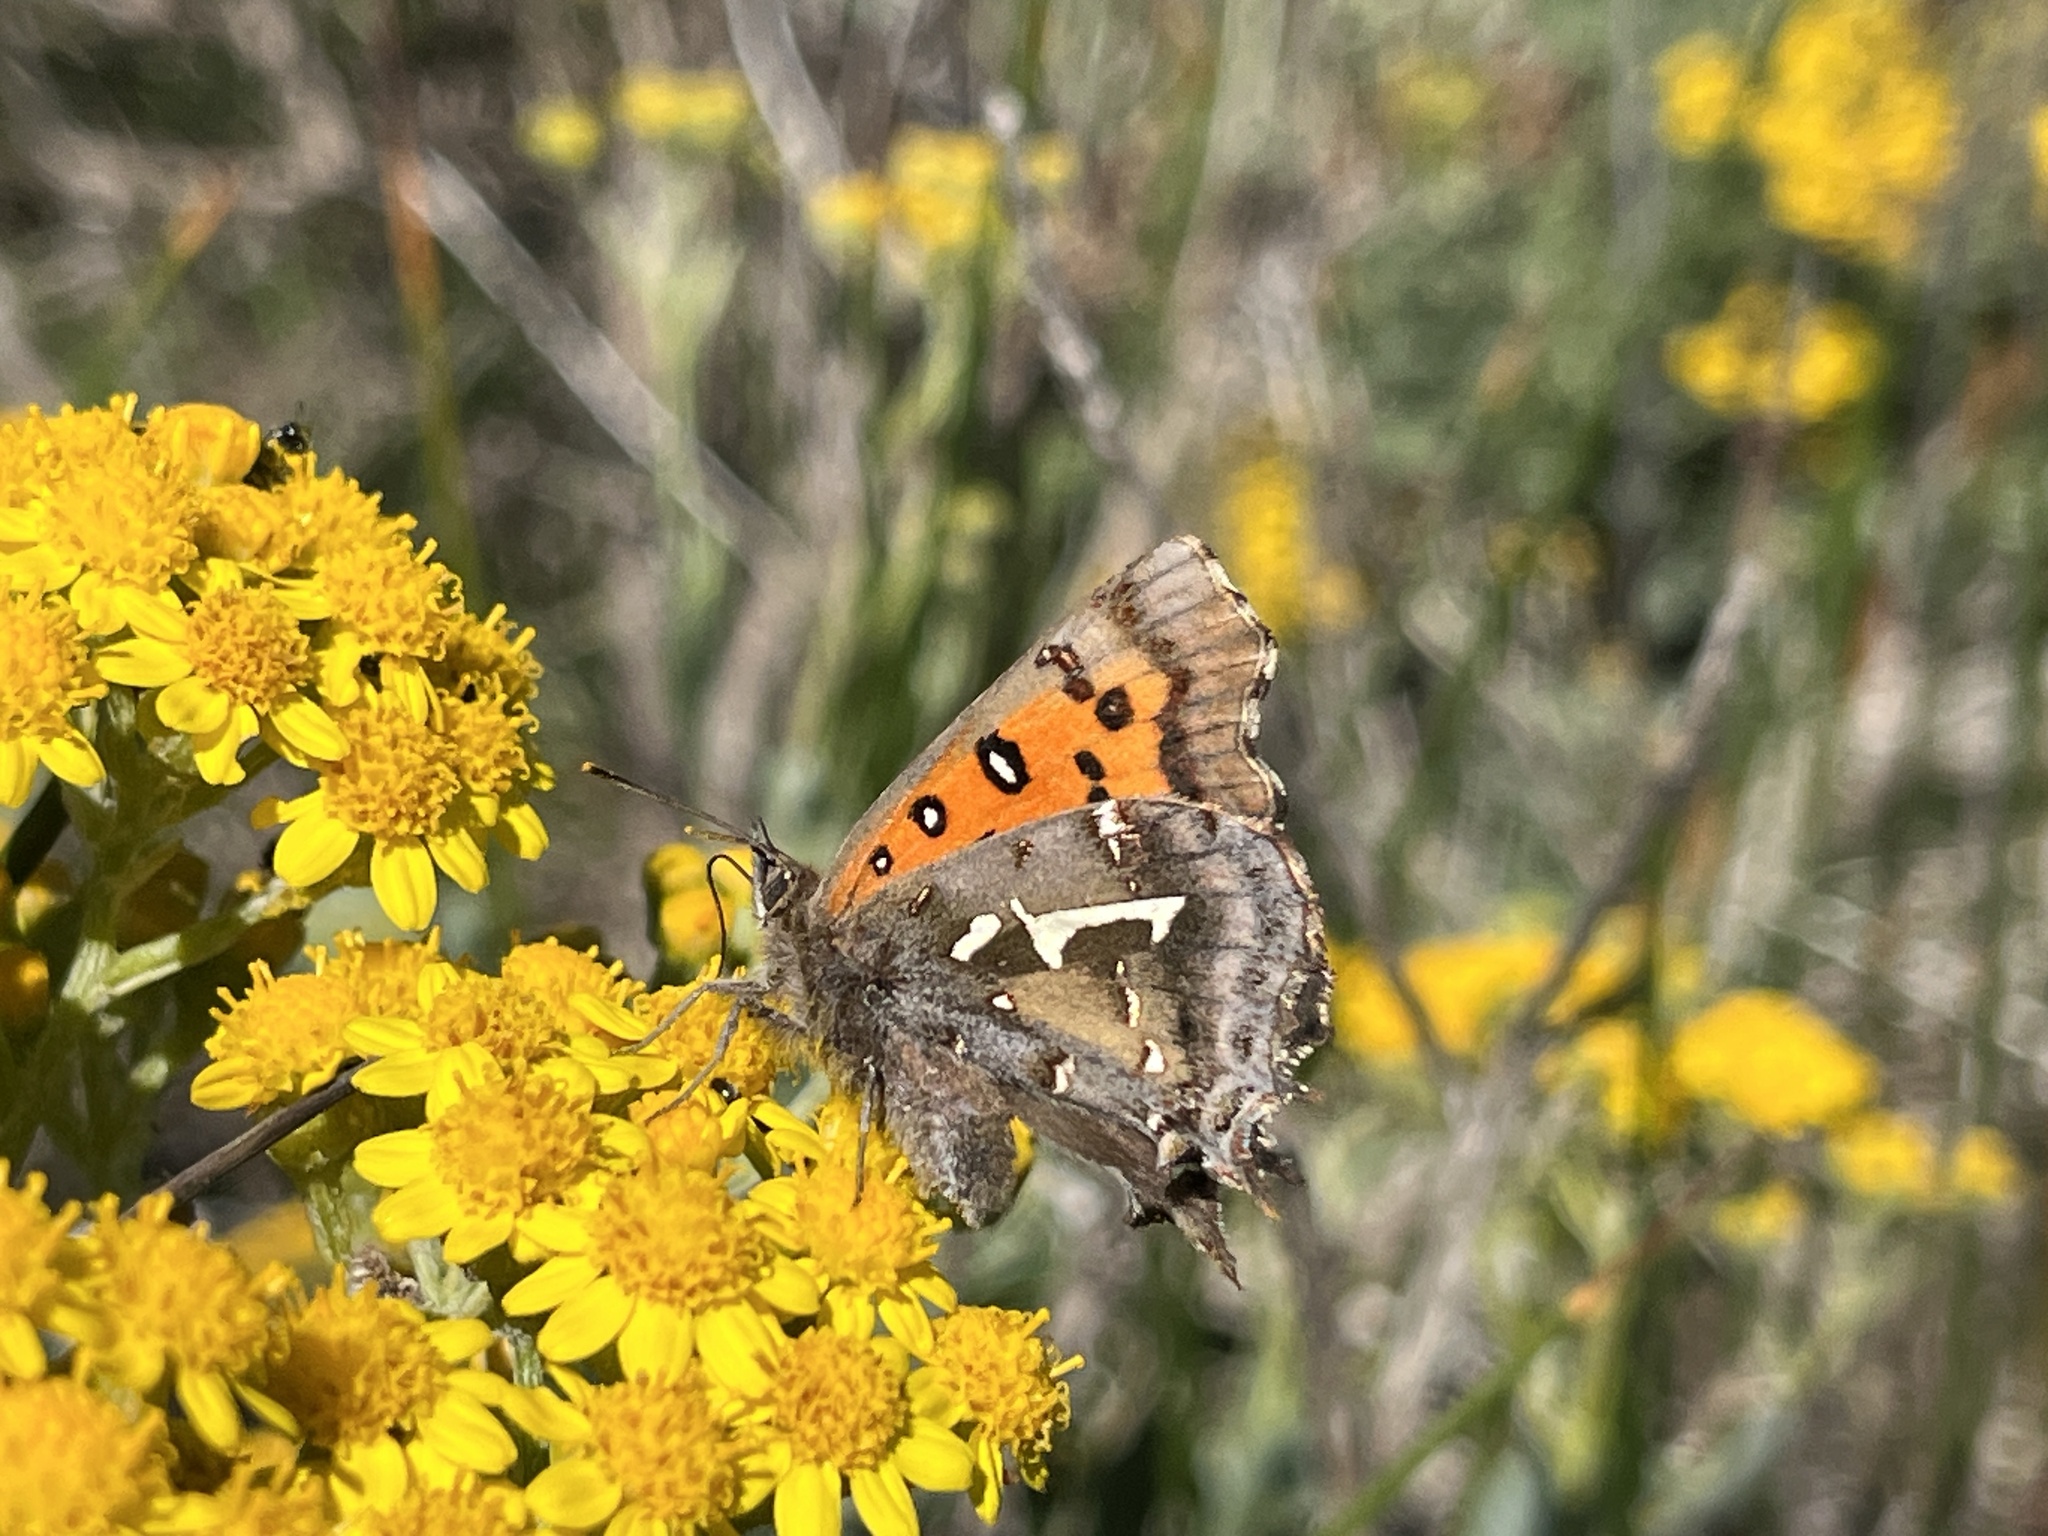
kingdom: Animalia
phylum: Arthropoda
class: Insecta
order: Lepidoptera
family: Lycaenidae
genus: Phasis
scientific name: Phasis thero
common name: Silver arrowhead
